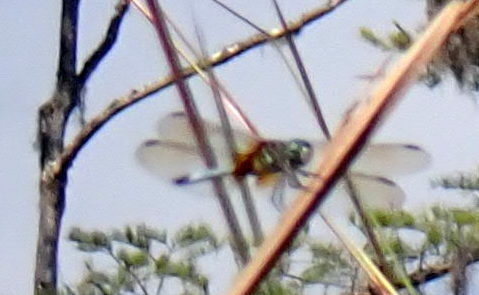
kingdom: Animalia
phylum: Arthropoda
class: Insecta
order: Odonata
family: Libellulidae
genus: Pachydiplax
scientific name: Pachydiplax longipennis
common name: Blue dasher
